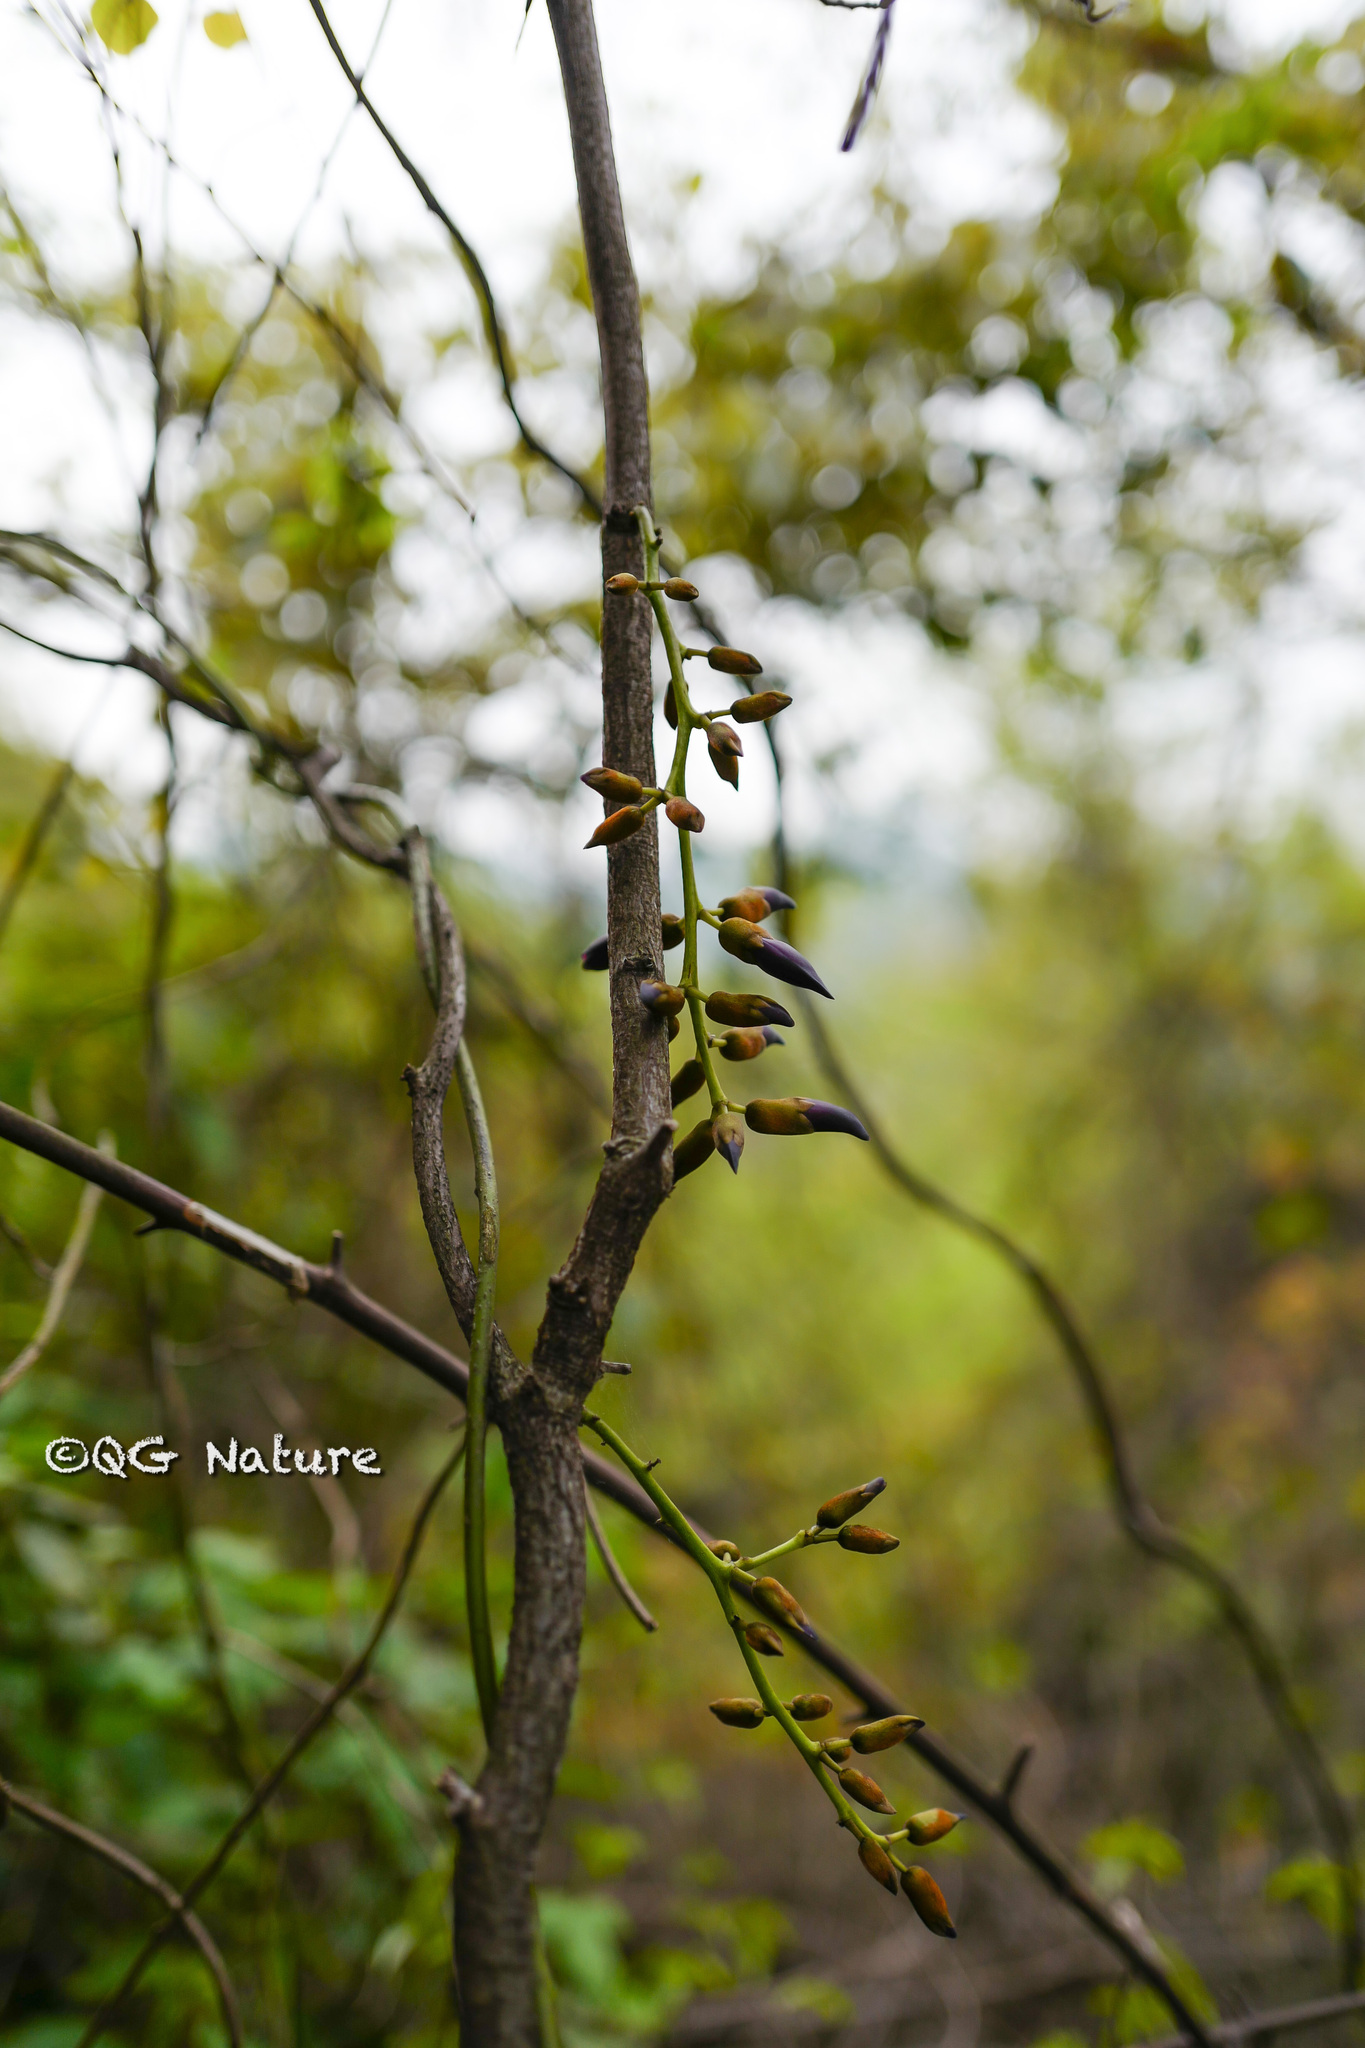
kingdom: Plantae
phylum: Tracheophyta
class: Magnoliopsida
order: Fabales
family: Fabaceae
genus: Wisteriopsis
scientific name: Wisteriopsis reticulata
